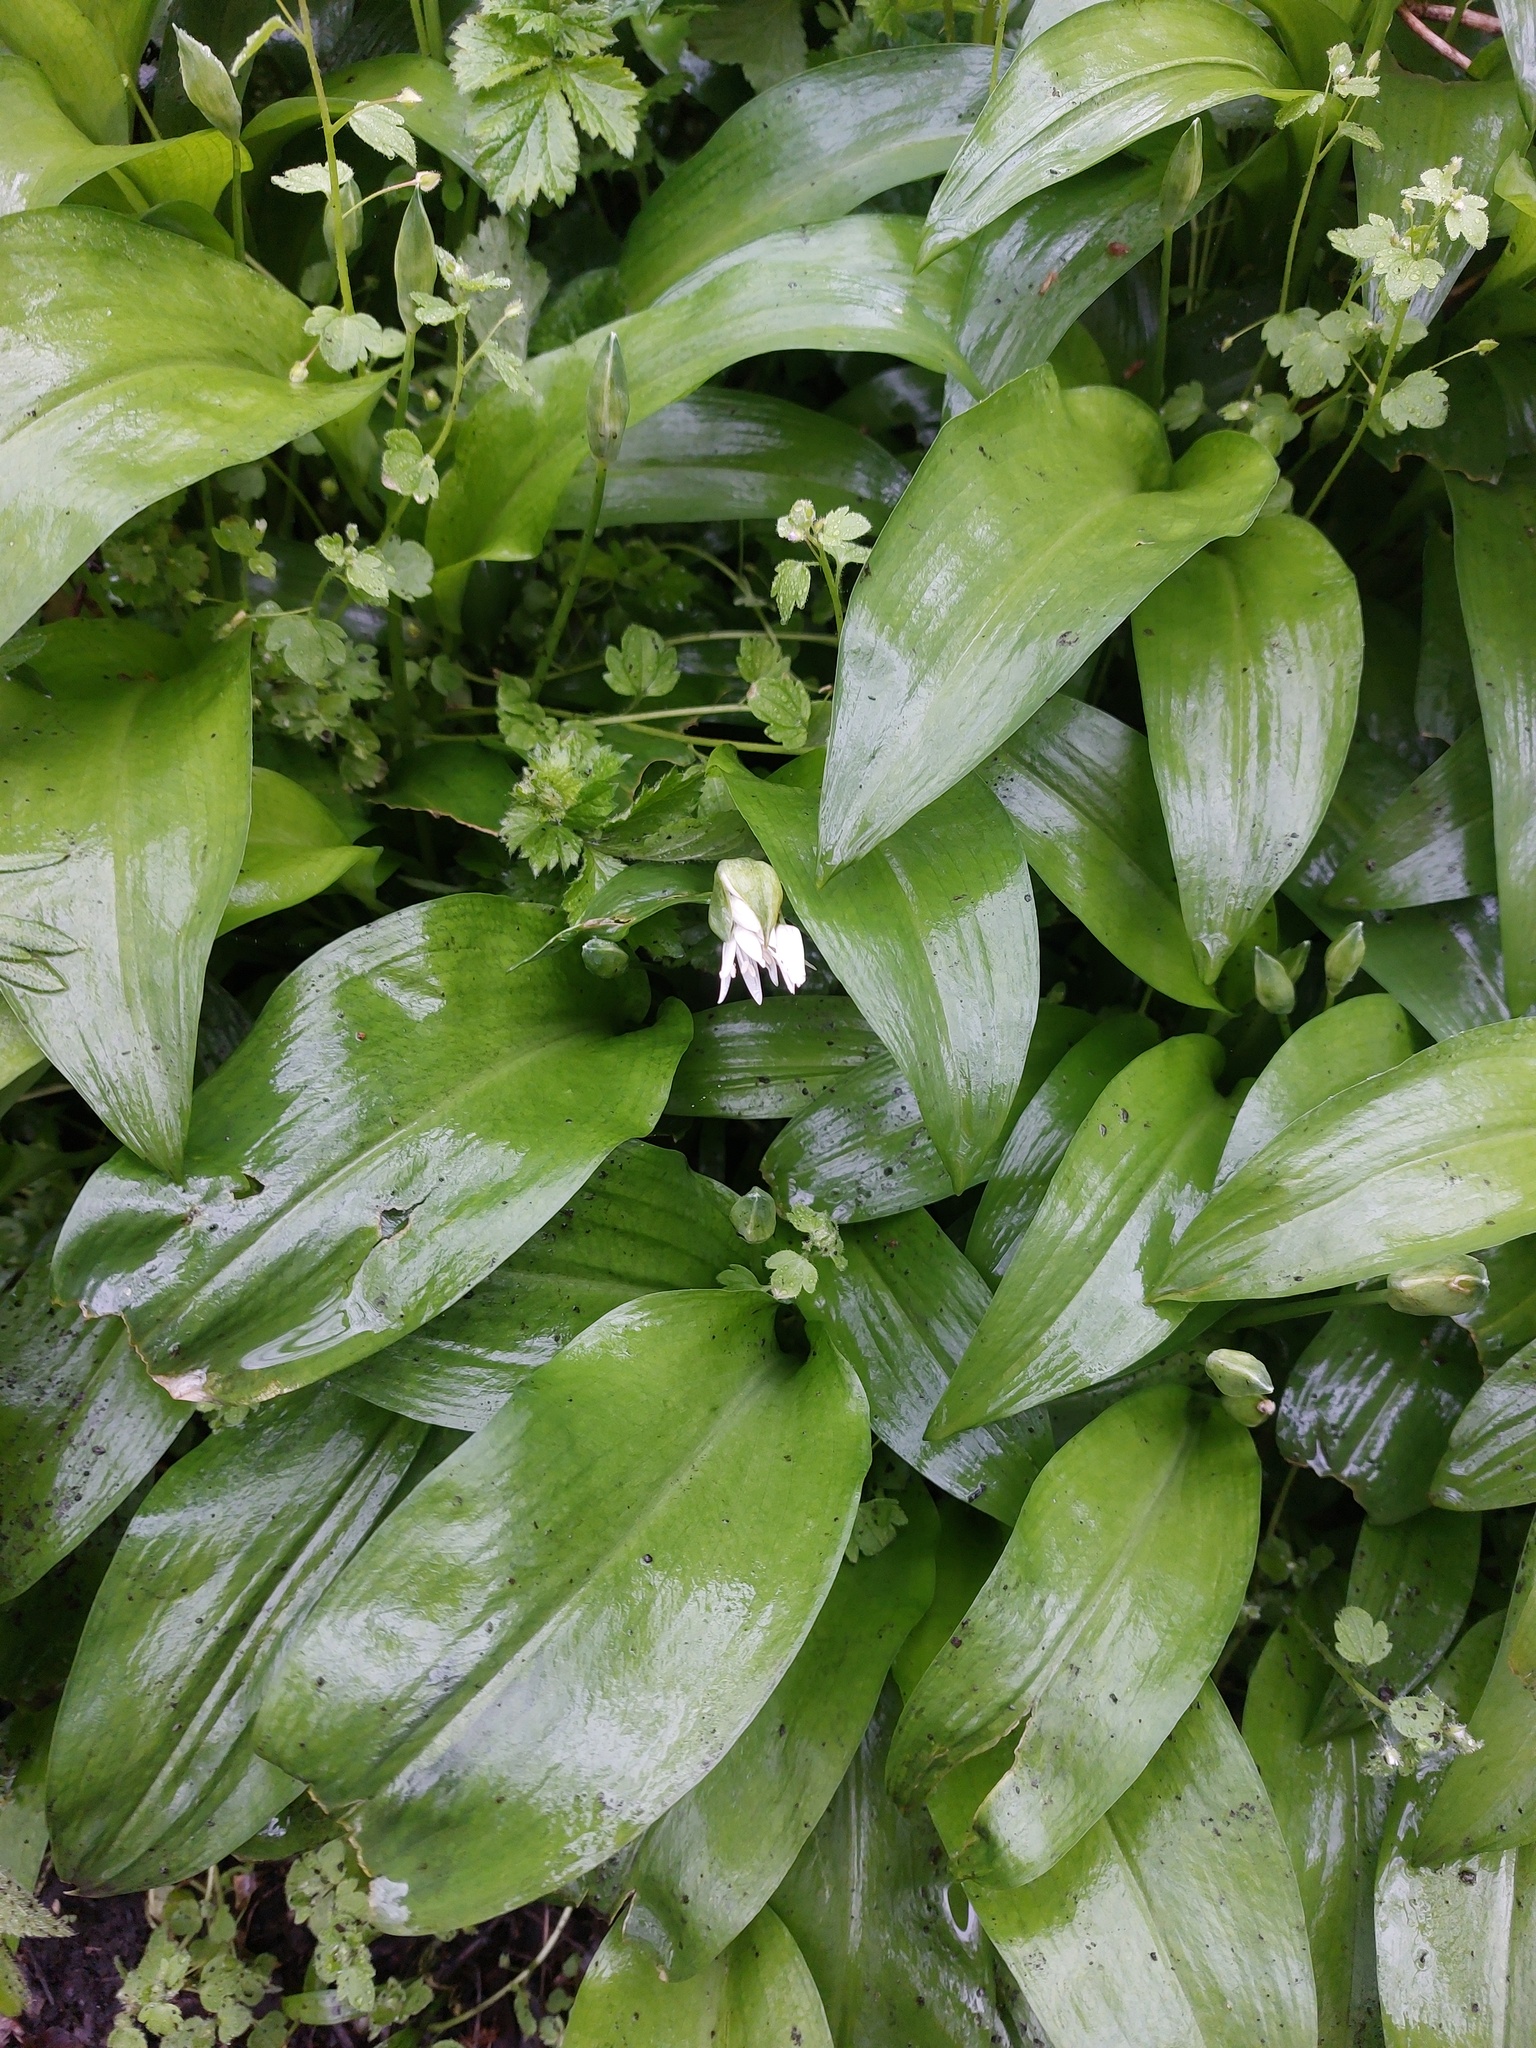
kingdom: Plantae
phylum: Tracheophyta
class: Liliopsida
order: Asparagales
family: Amaryllidaceae
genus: Allium
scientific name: Allium ursinum
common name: Ramsons
